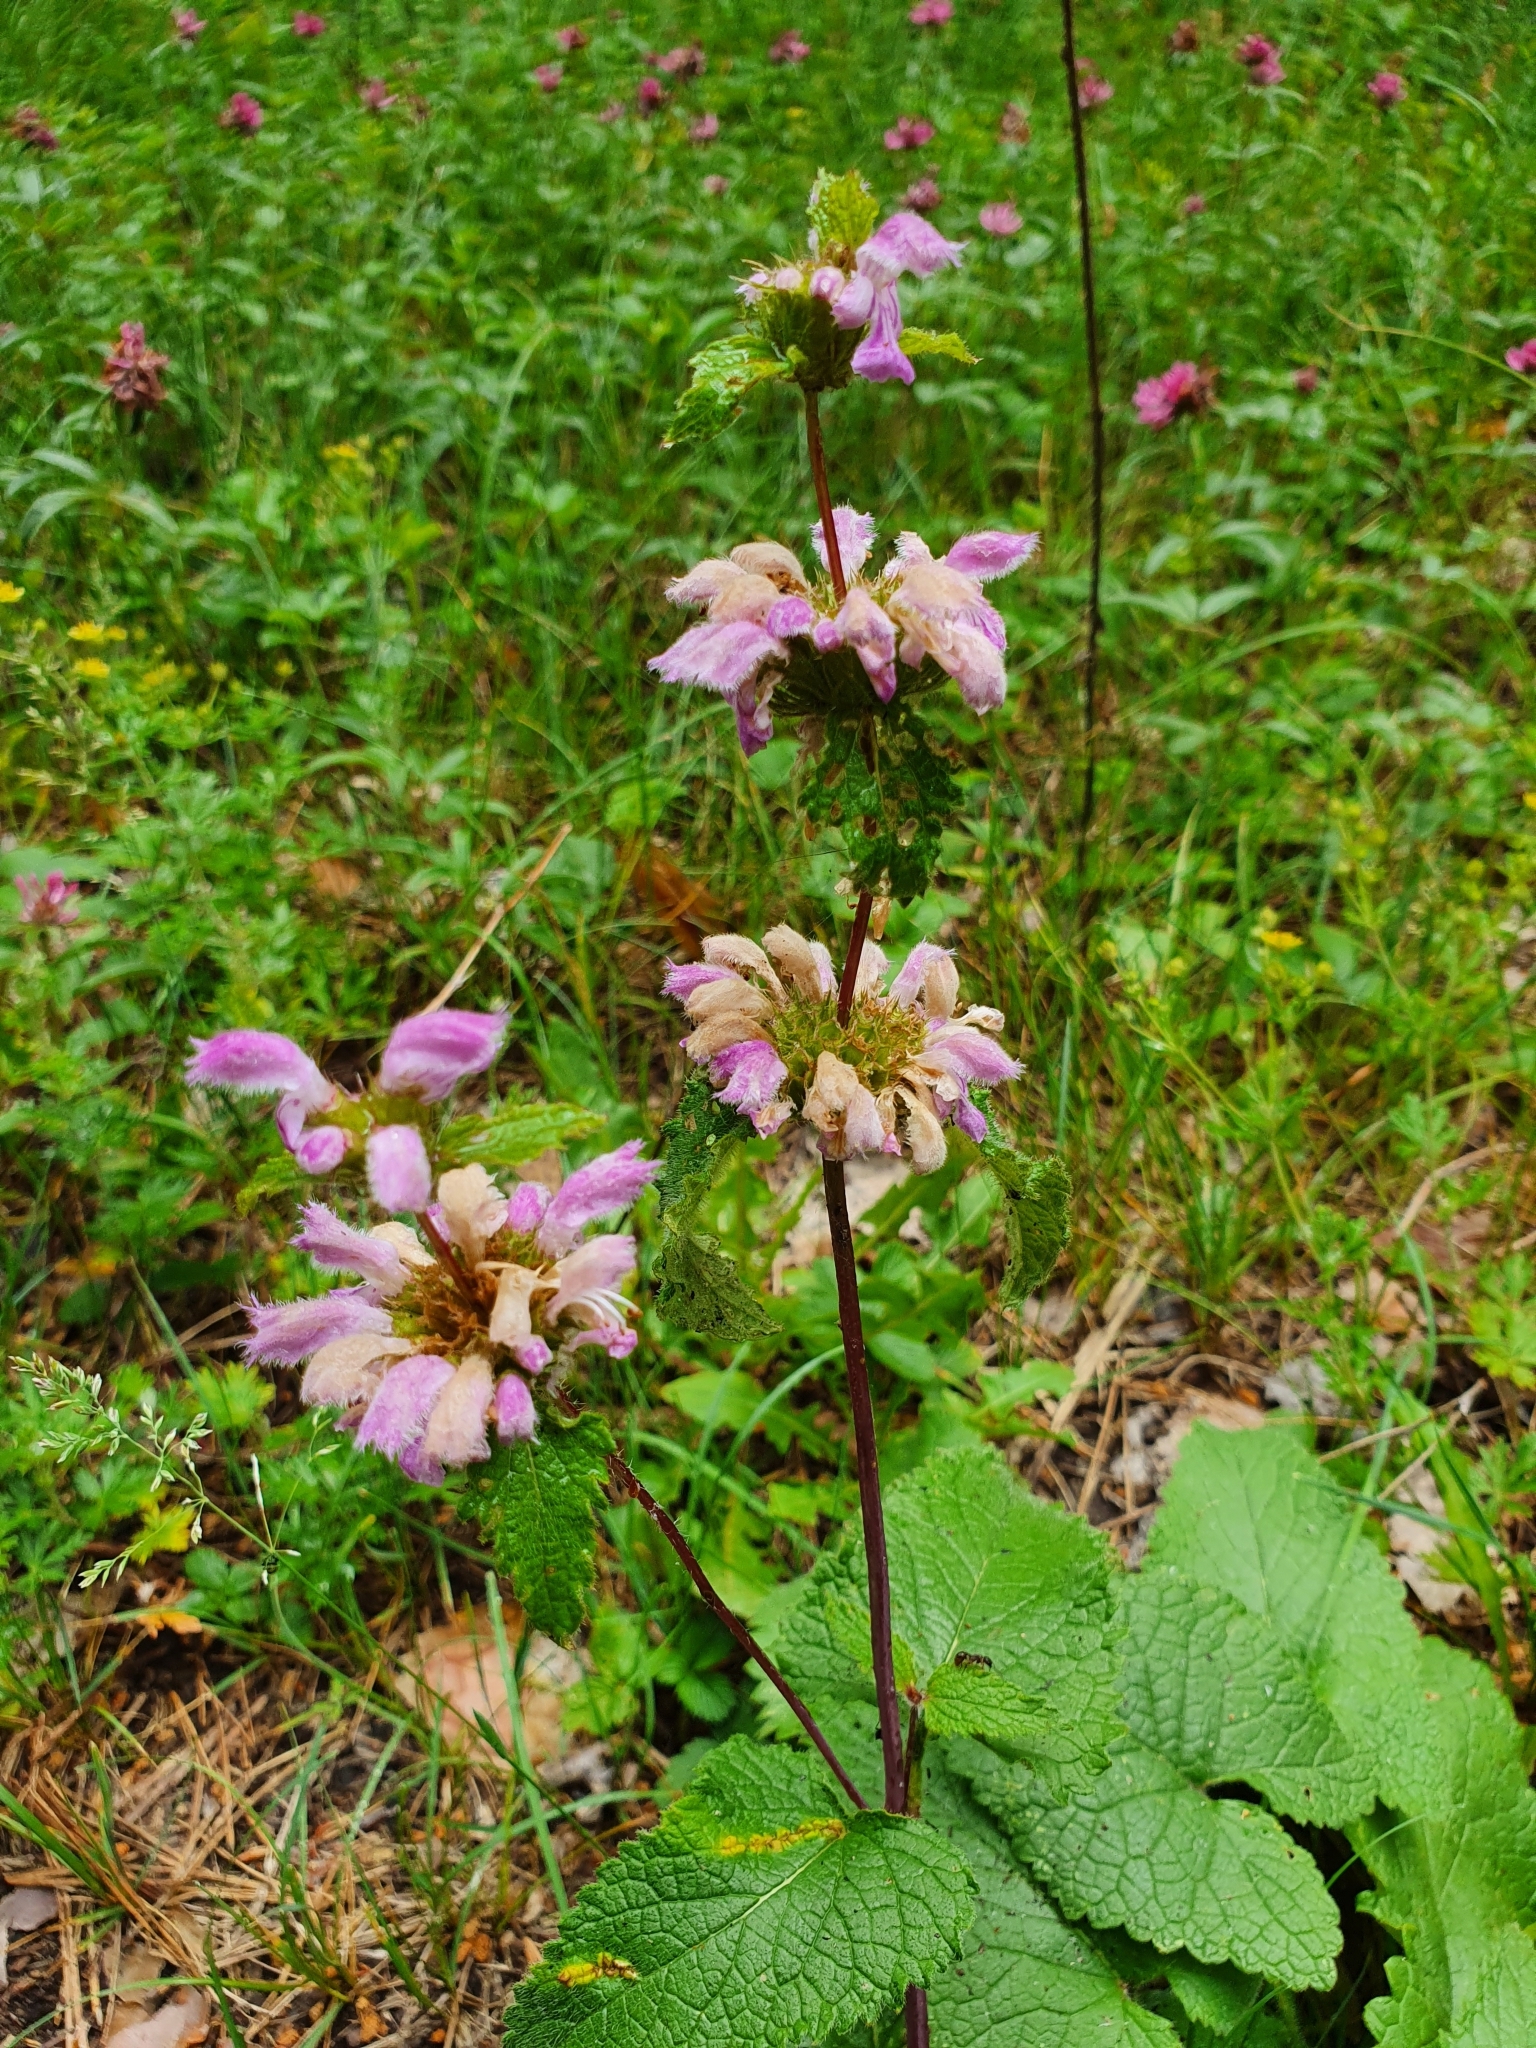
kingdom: Plantae
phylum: Tracheophyta
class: Magnoliopsida
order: Lamiales
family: Lamiaceae
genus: Phlomoides
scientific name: Phlomoides tuberosa
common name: Tuberous jerusalem sage
